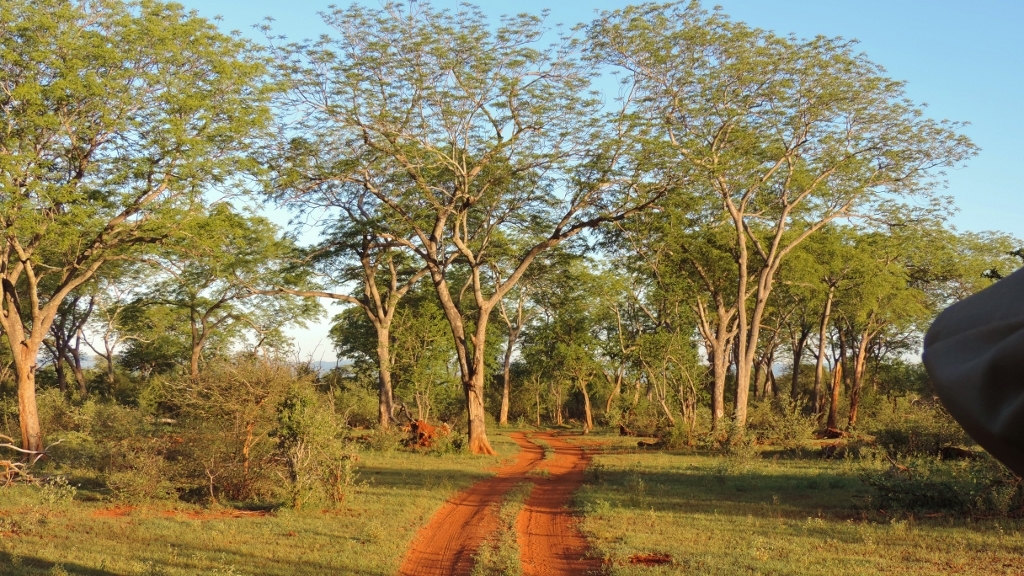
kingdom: Plantae
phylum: Tracheophyta
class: Magnoliopsida
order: Sapindales
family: Kirkiaceae
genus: Kirkia
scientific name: Kirkia acuminata
